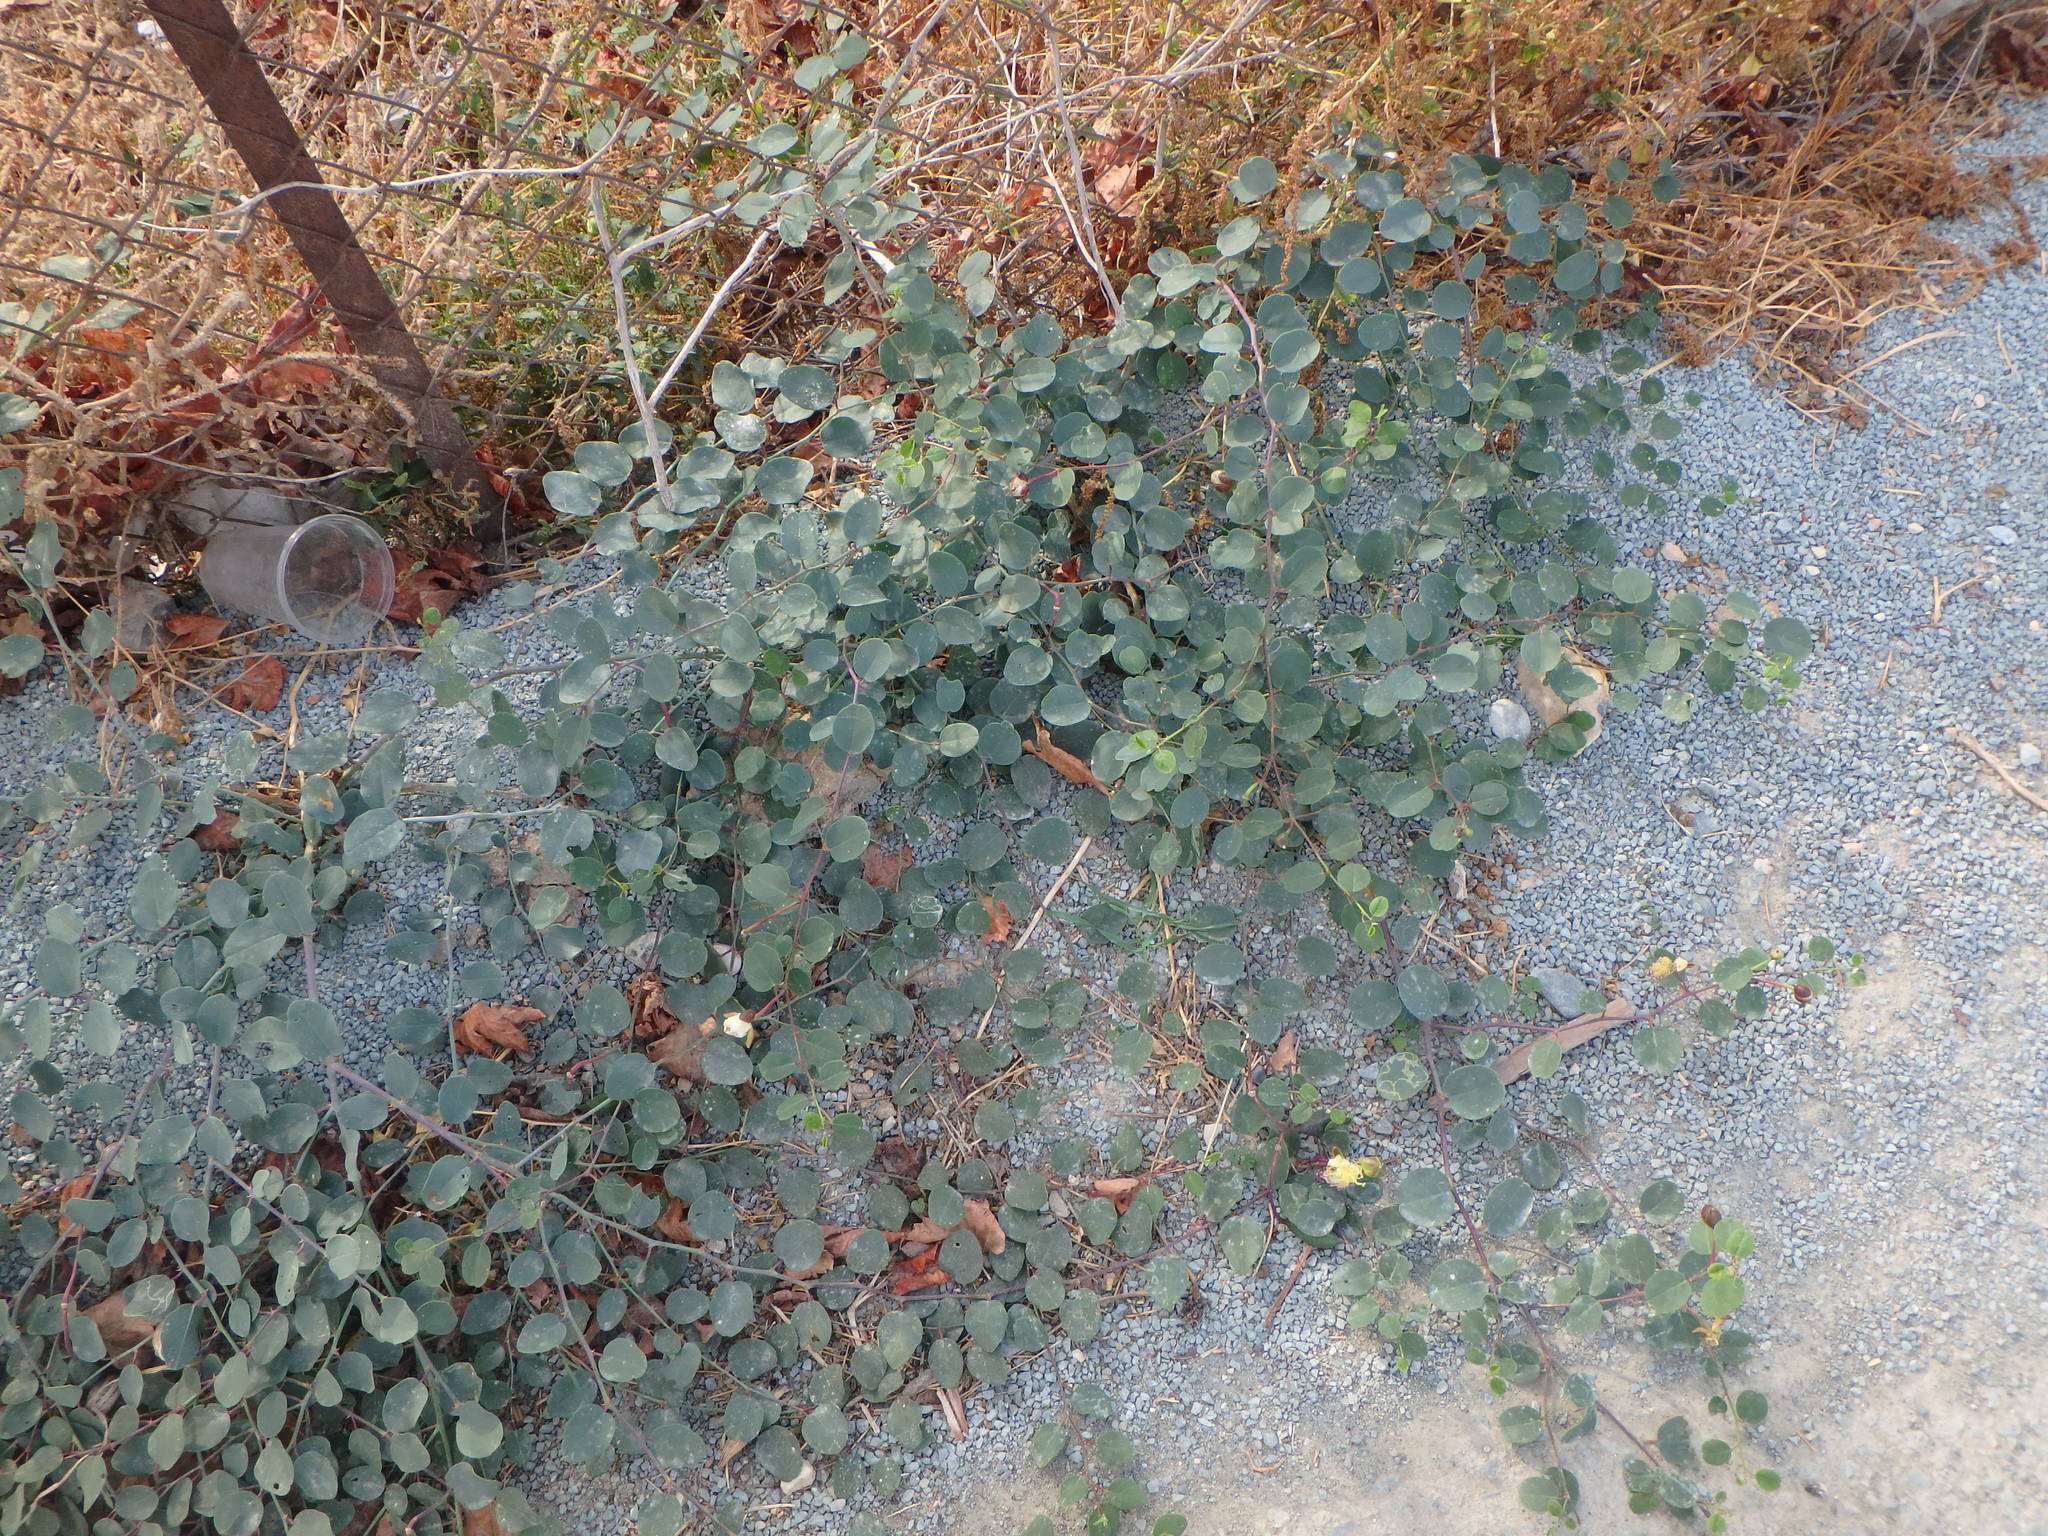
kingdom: Plantae
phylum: Tracheophyta
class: Magnoliopsida
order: Brassicales
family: Capparaceae
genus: Capparis
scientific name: Capparis spinosa
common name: Caper
